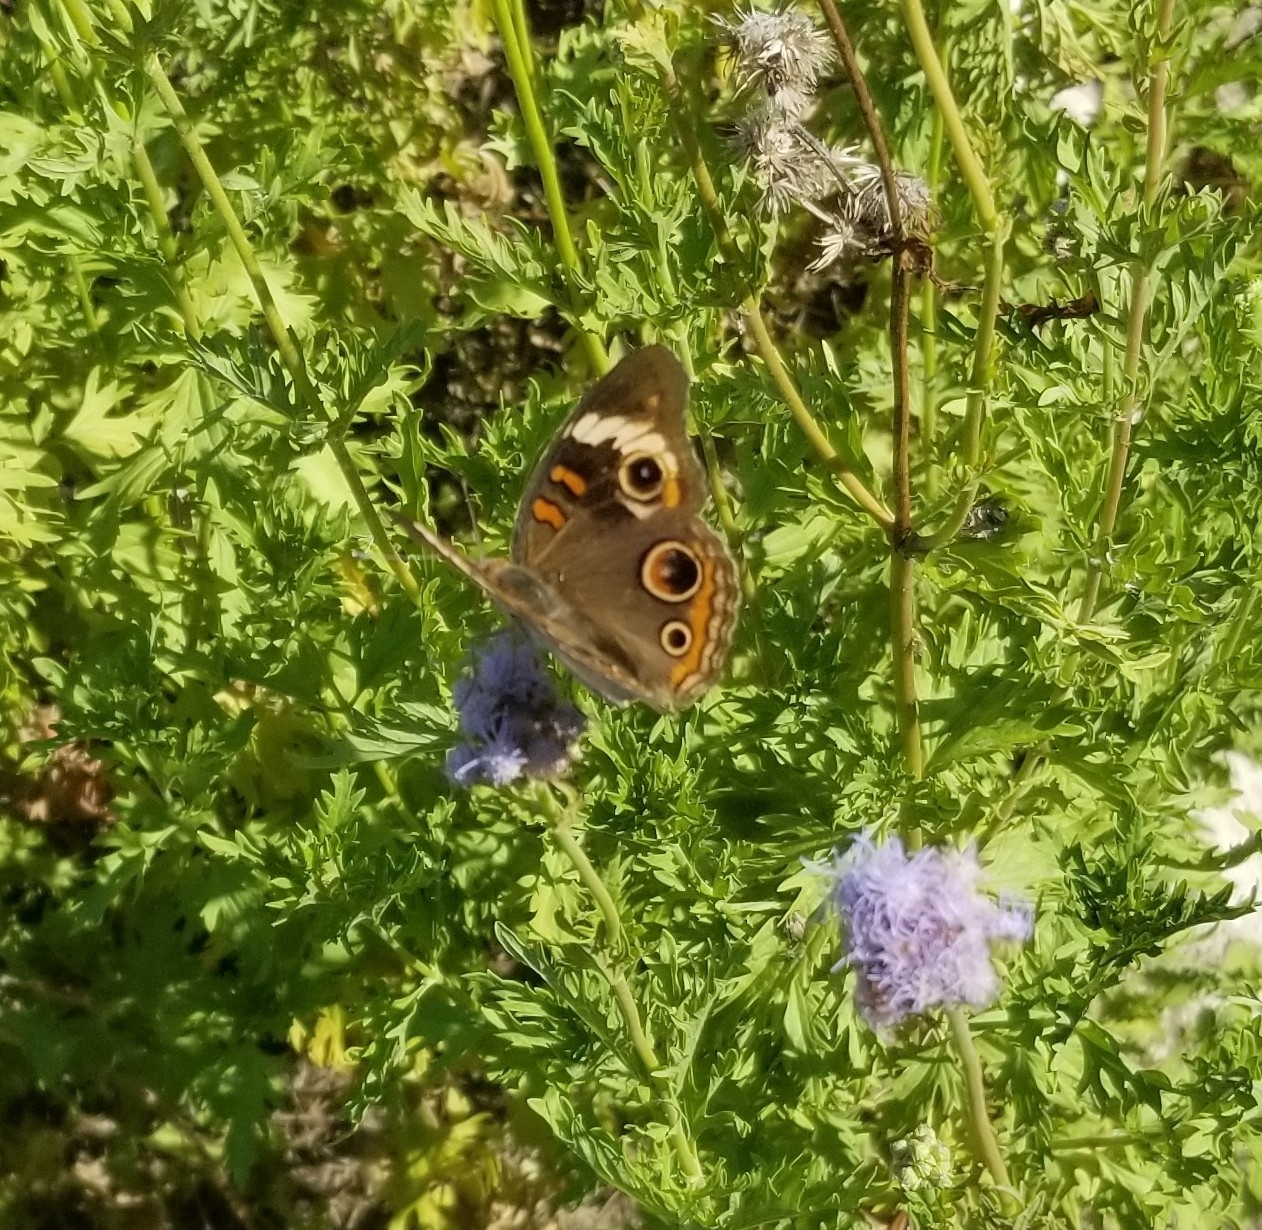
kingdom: Animalia
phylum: Arthropoda
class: Insecta
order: Lepidoptera
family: Nymphalidae
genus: Junonia
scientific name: Junonia coenia
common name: Common buckeye
